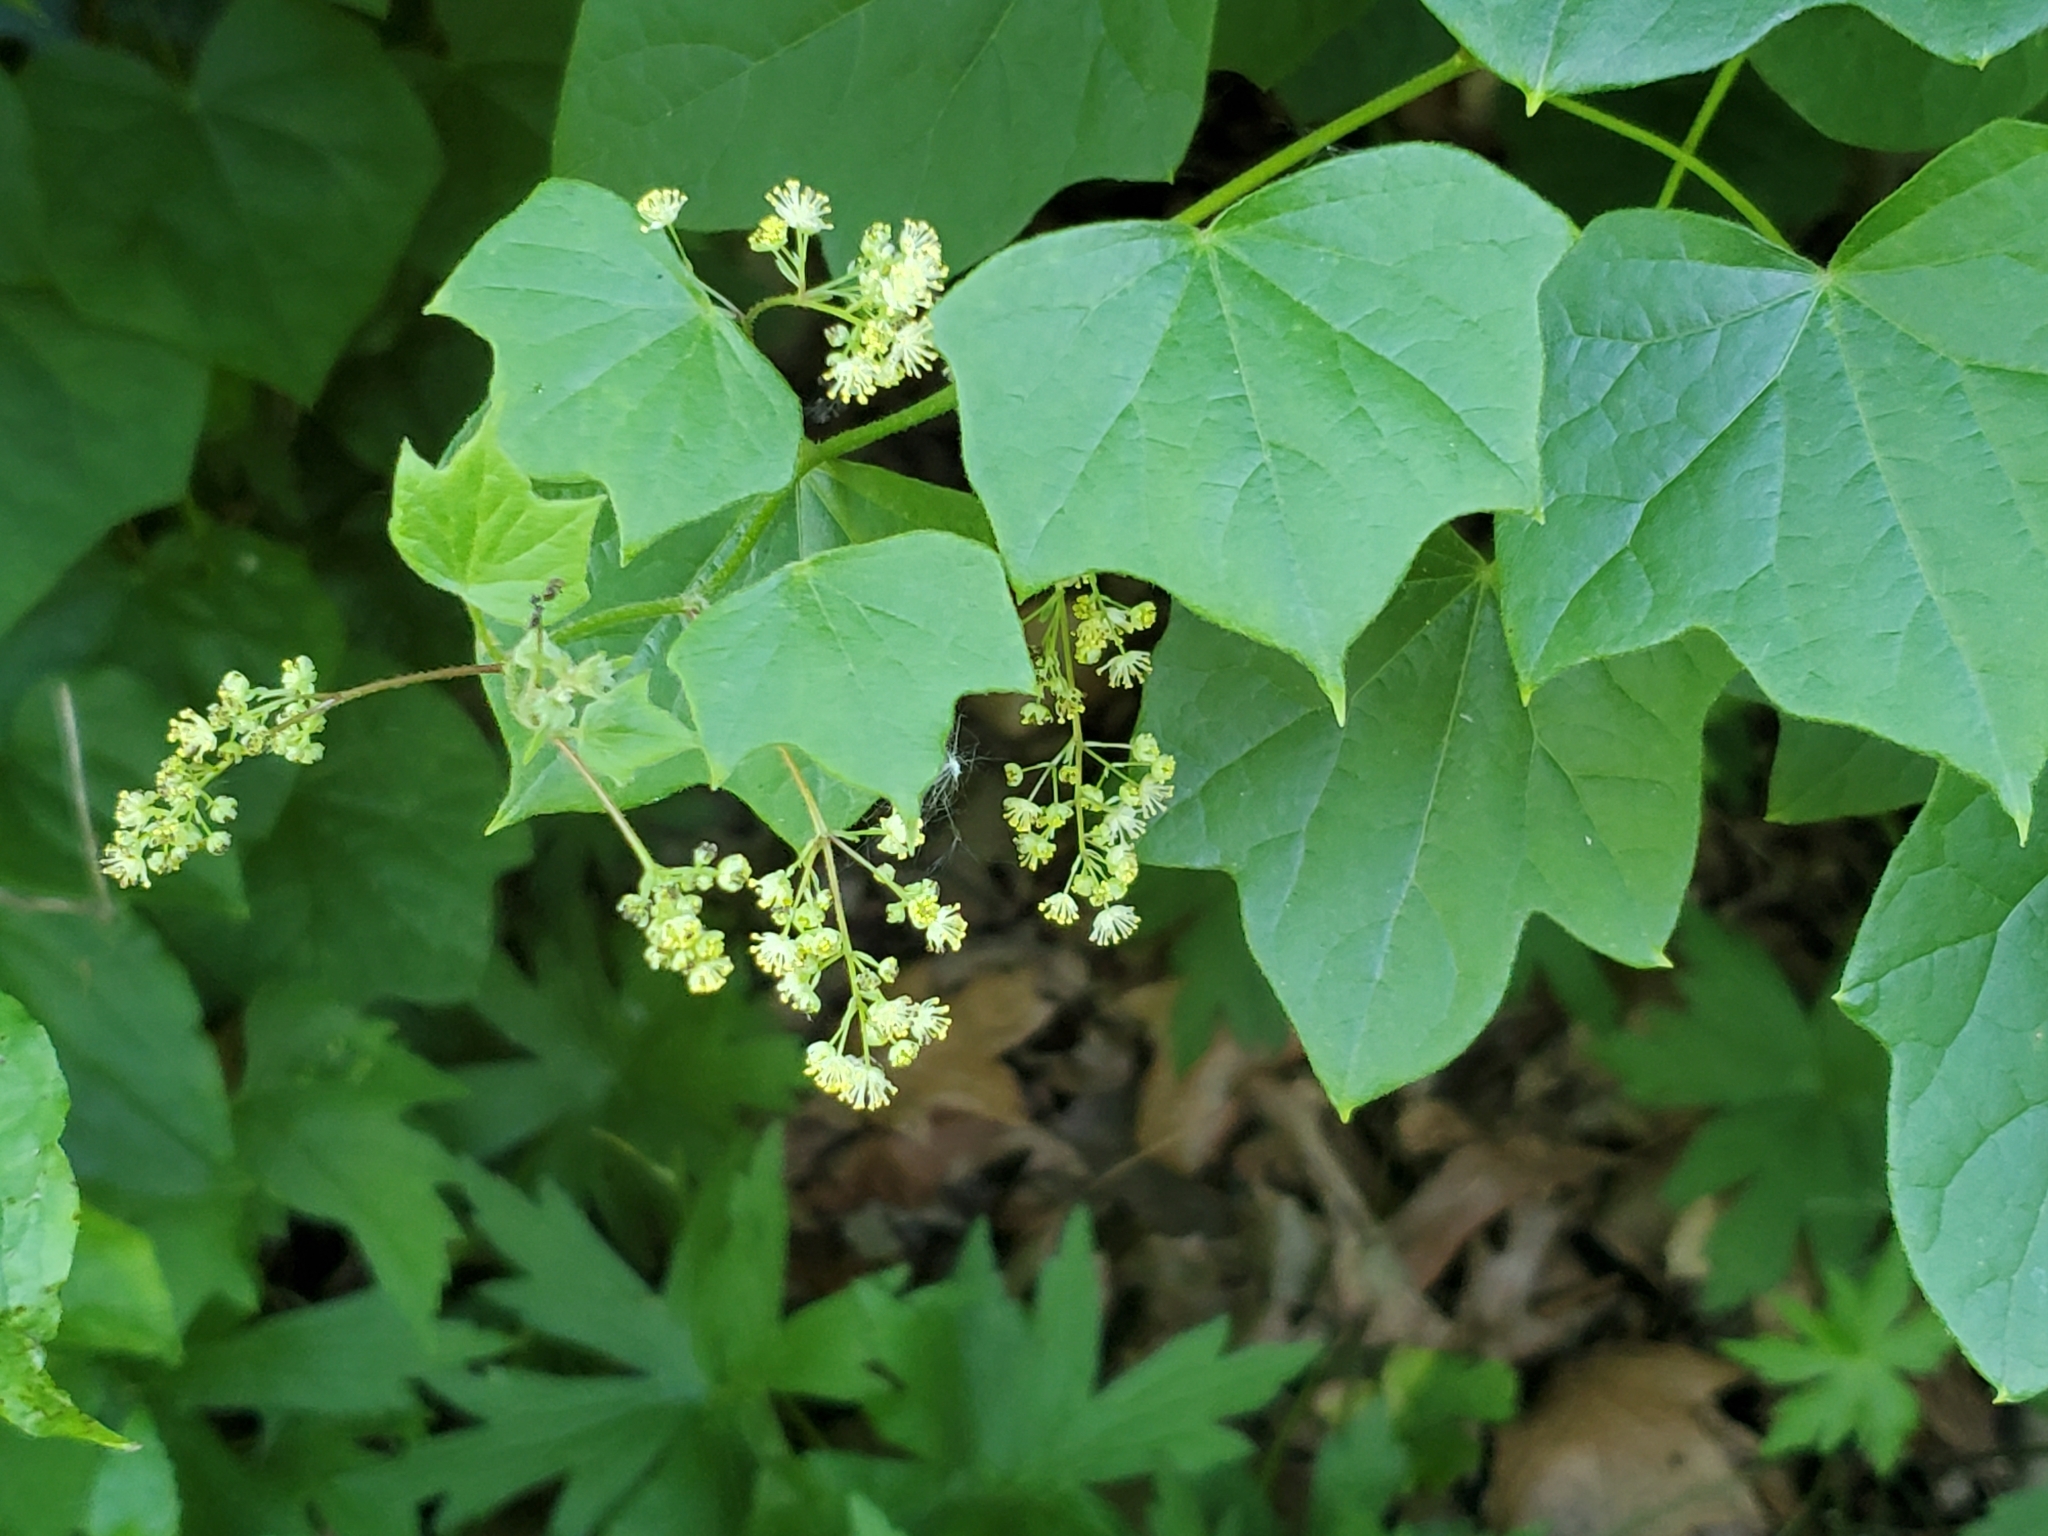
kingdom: Plantae
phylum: Tracheophyta
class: Magnoliopsida
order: Ranunculales
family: Menispermaceae
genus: Menispermum
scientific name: Menispermum canadense
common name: Moonseed
